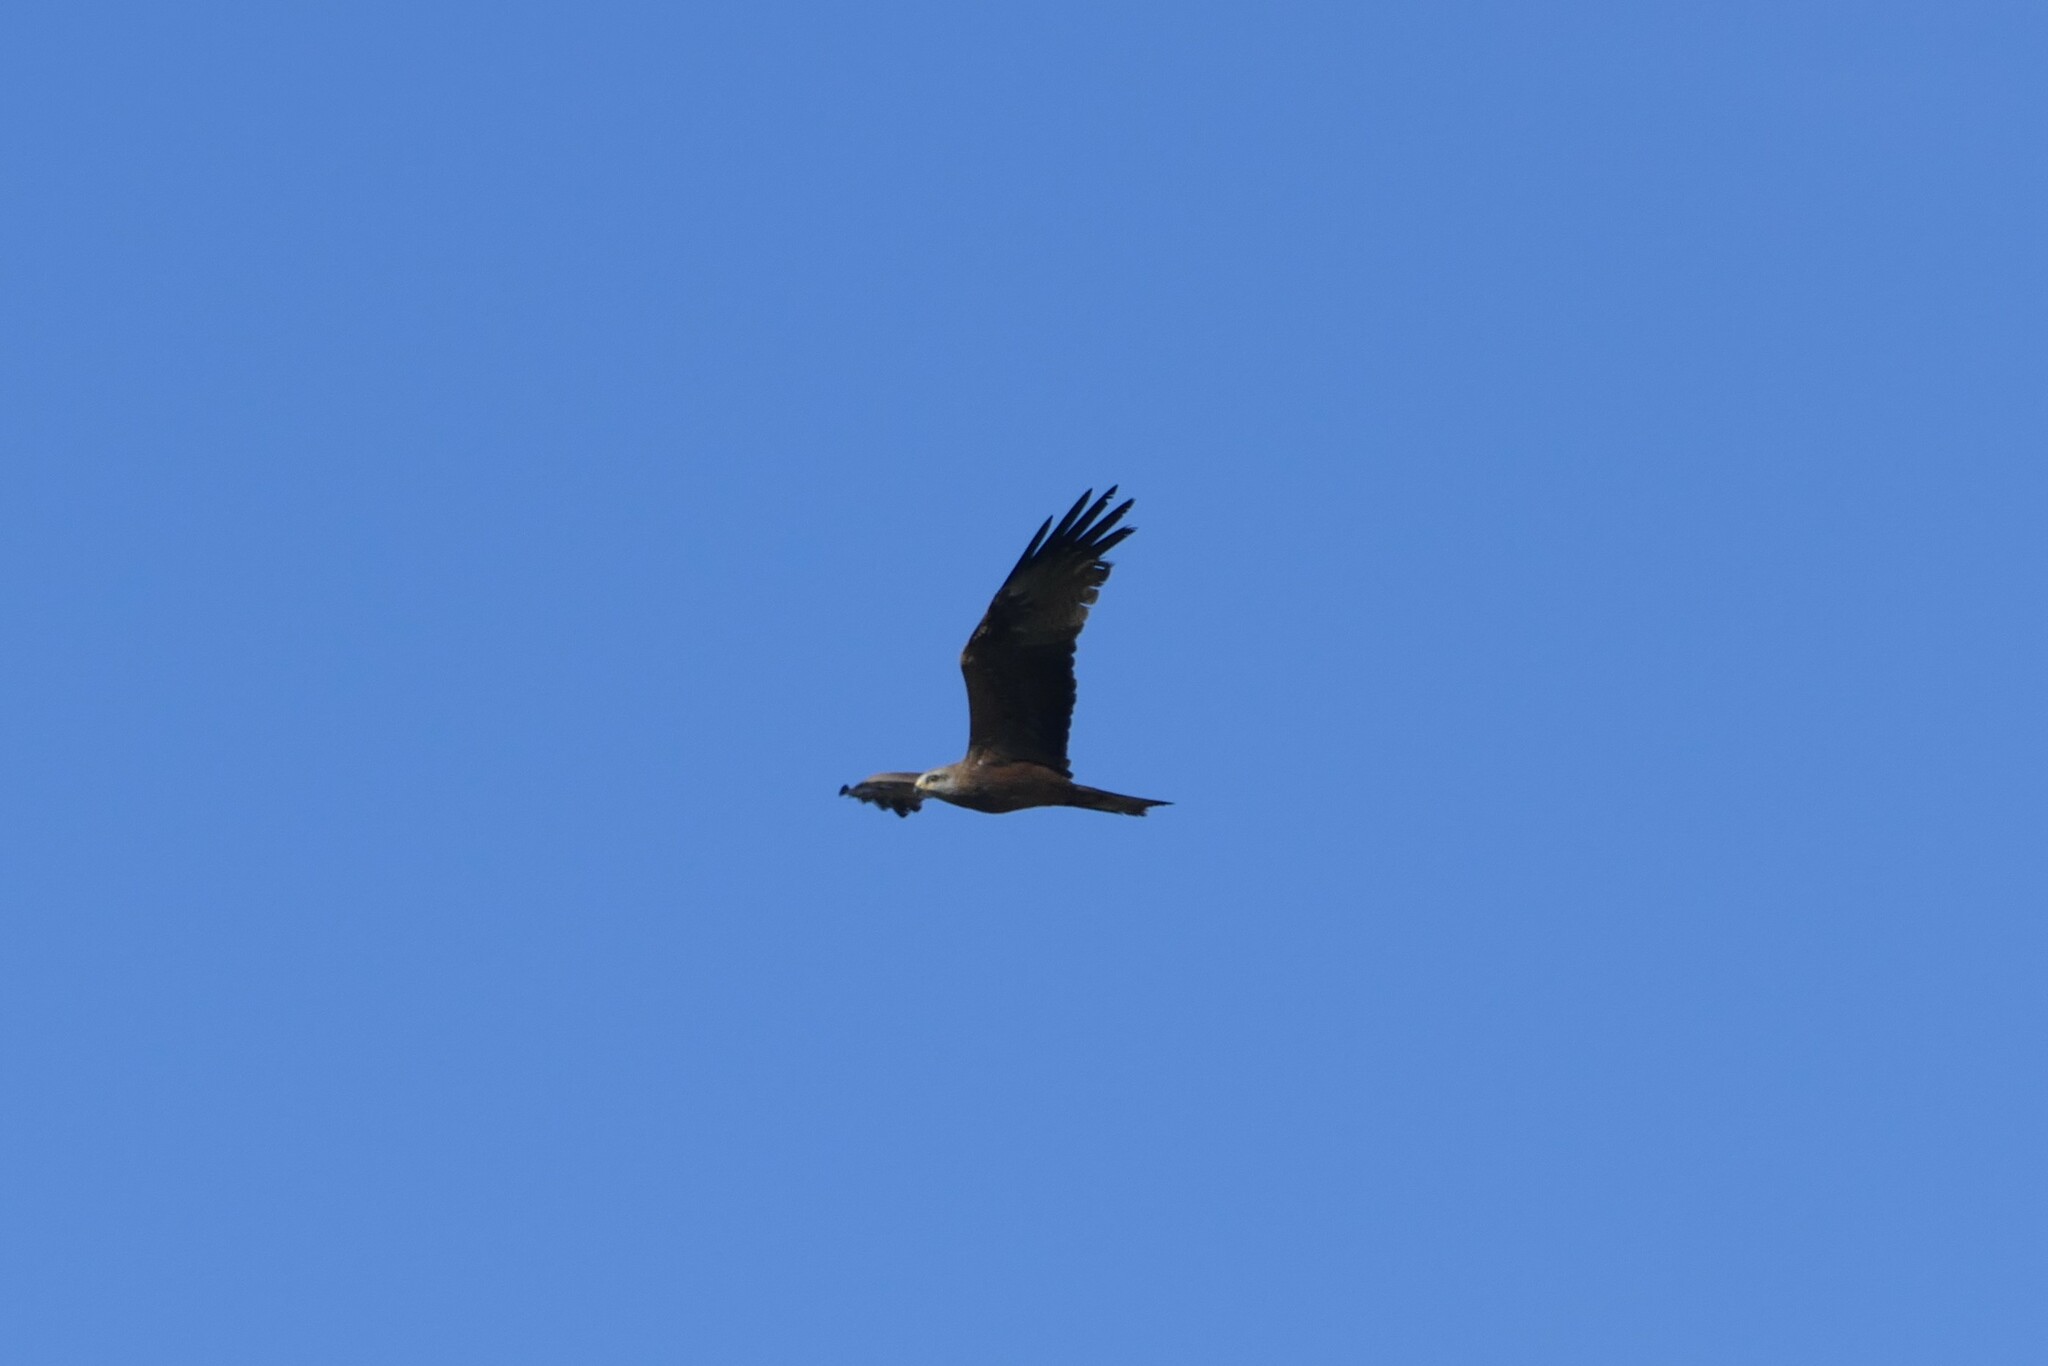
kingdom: Animalia
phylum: Chordata
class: Aves
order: Accipitriformes
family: Accipitridae
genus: Milvus
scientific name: Milvus migrans
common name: Black kite
